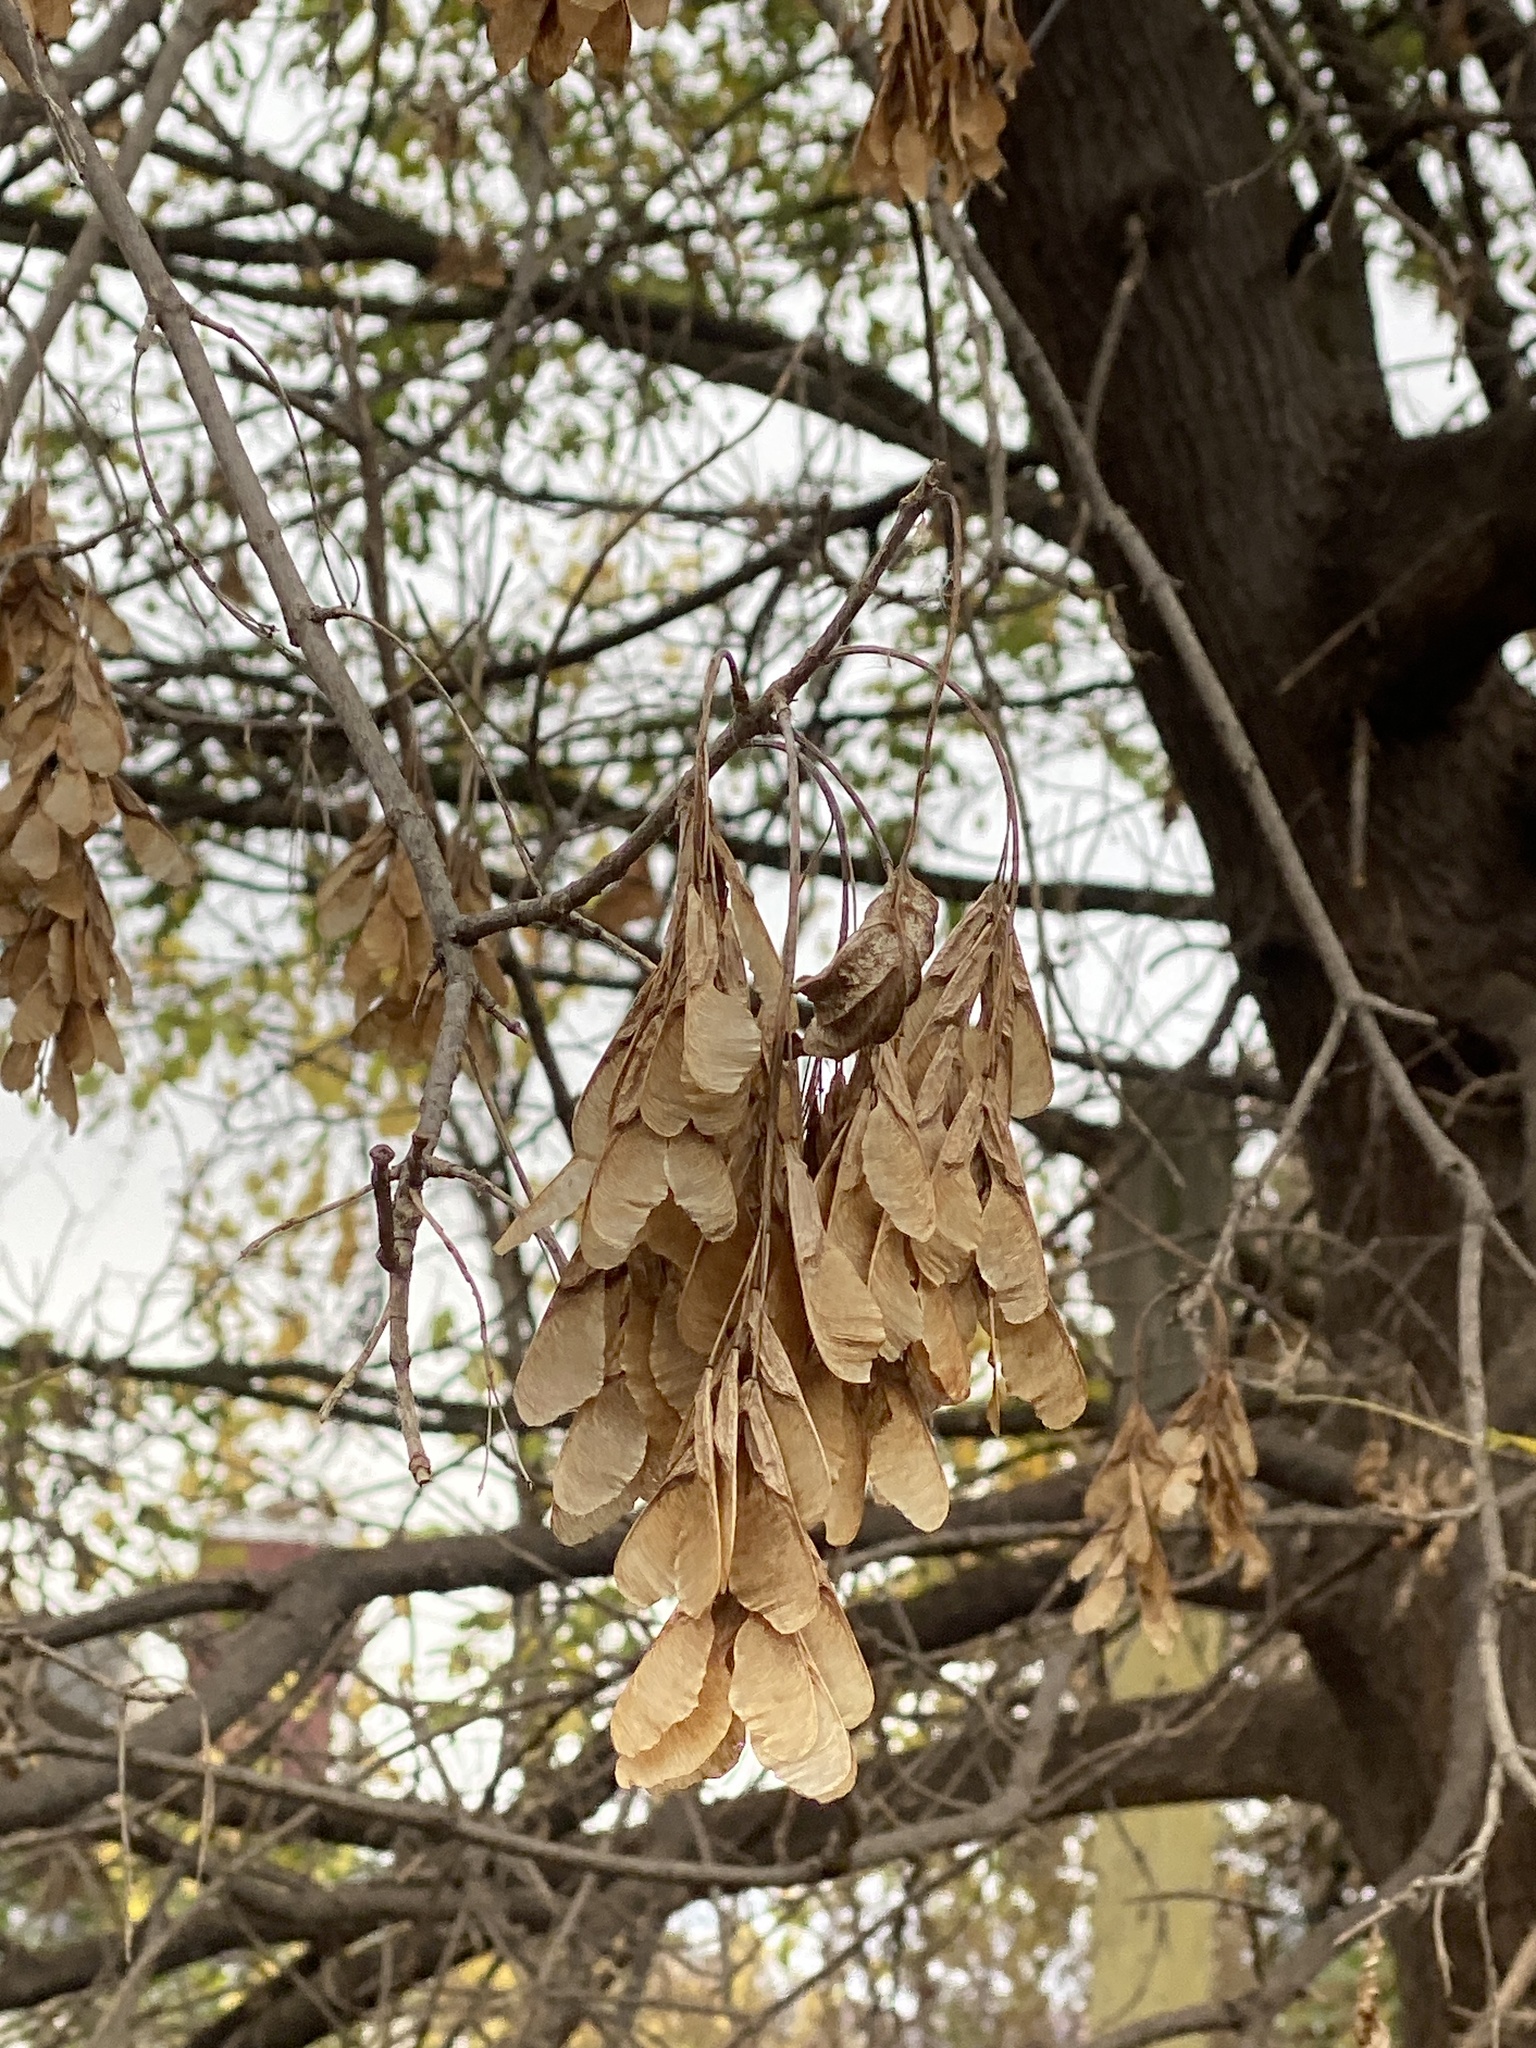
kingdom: Plantae
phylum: Tracheophyta
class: Magnoliopsida
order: Sapindales
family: Sapindaceae
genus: Acer
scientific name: Acer negundo
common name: Ashleaf maple
